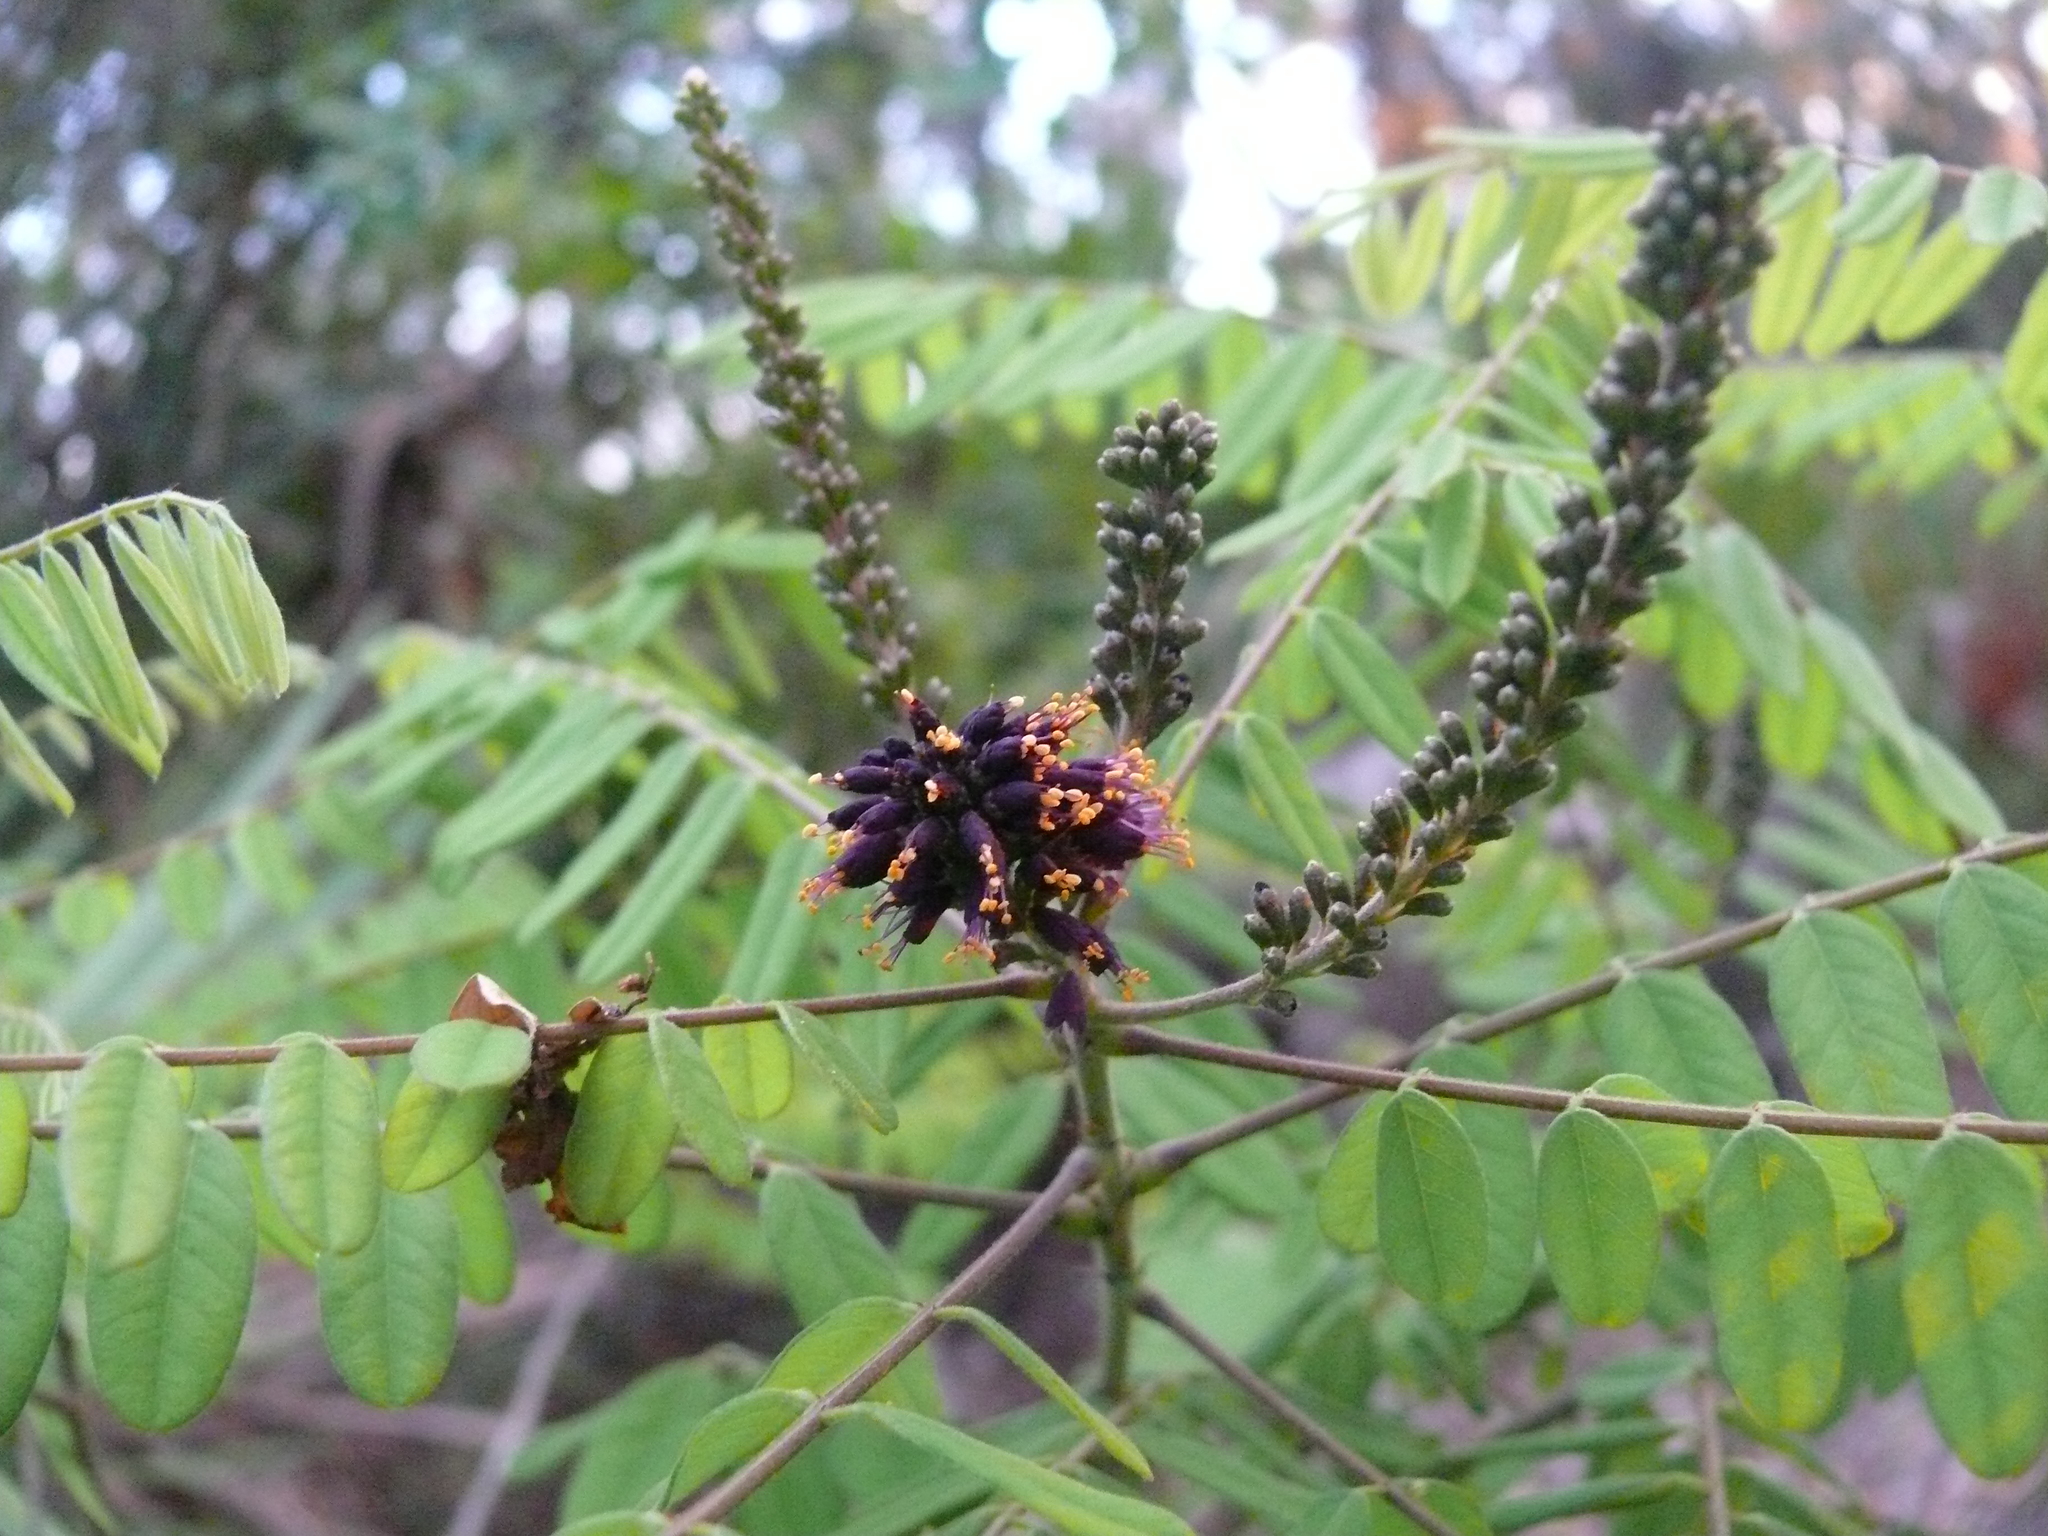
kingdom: Plantae
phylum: Tracheophyta
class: Magnoliopsida
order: Fabales
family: Fabaceae
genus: Amorpha
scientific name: Amorpha fruticosa
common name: False indigo
